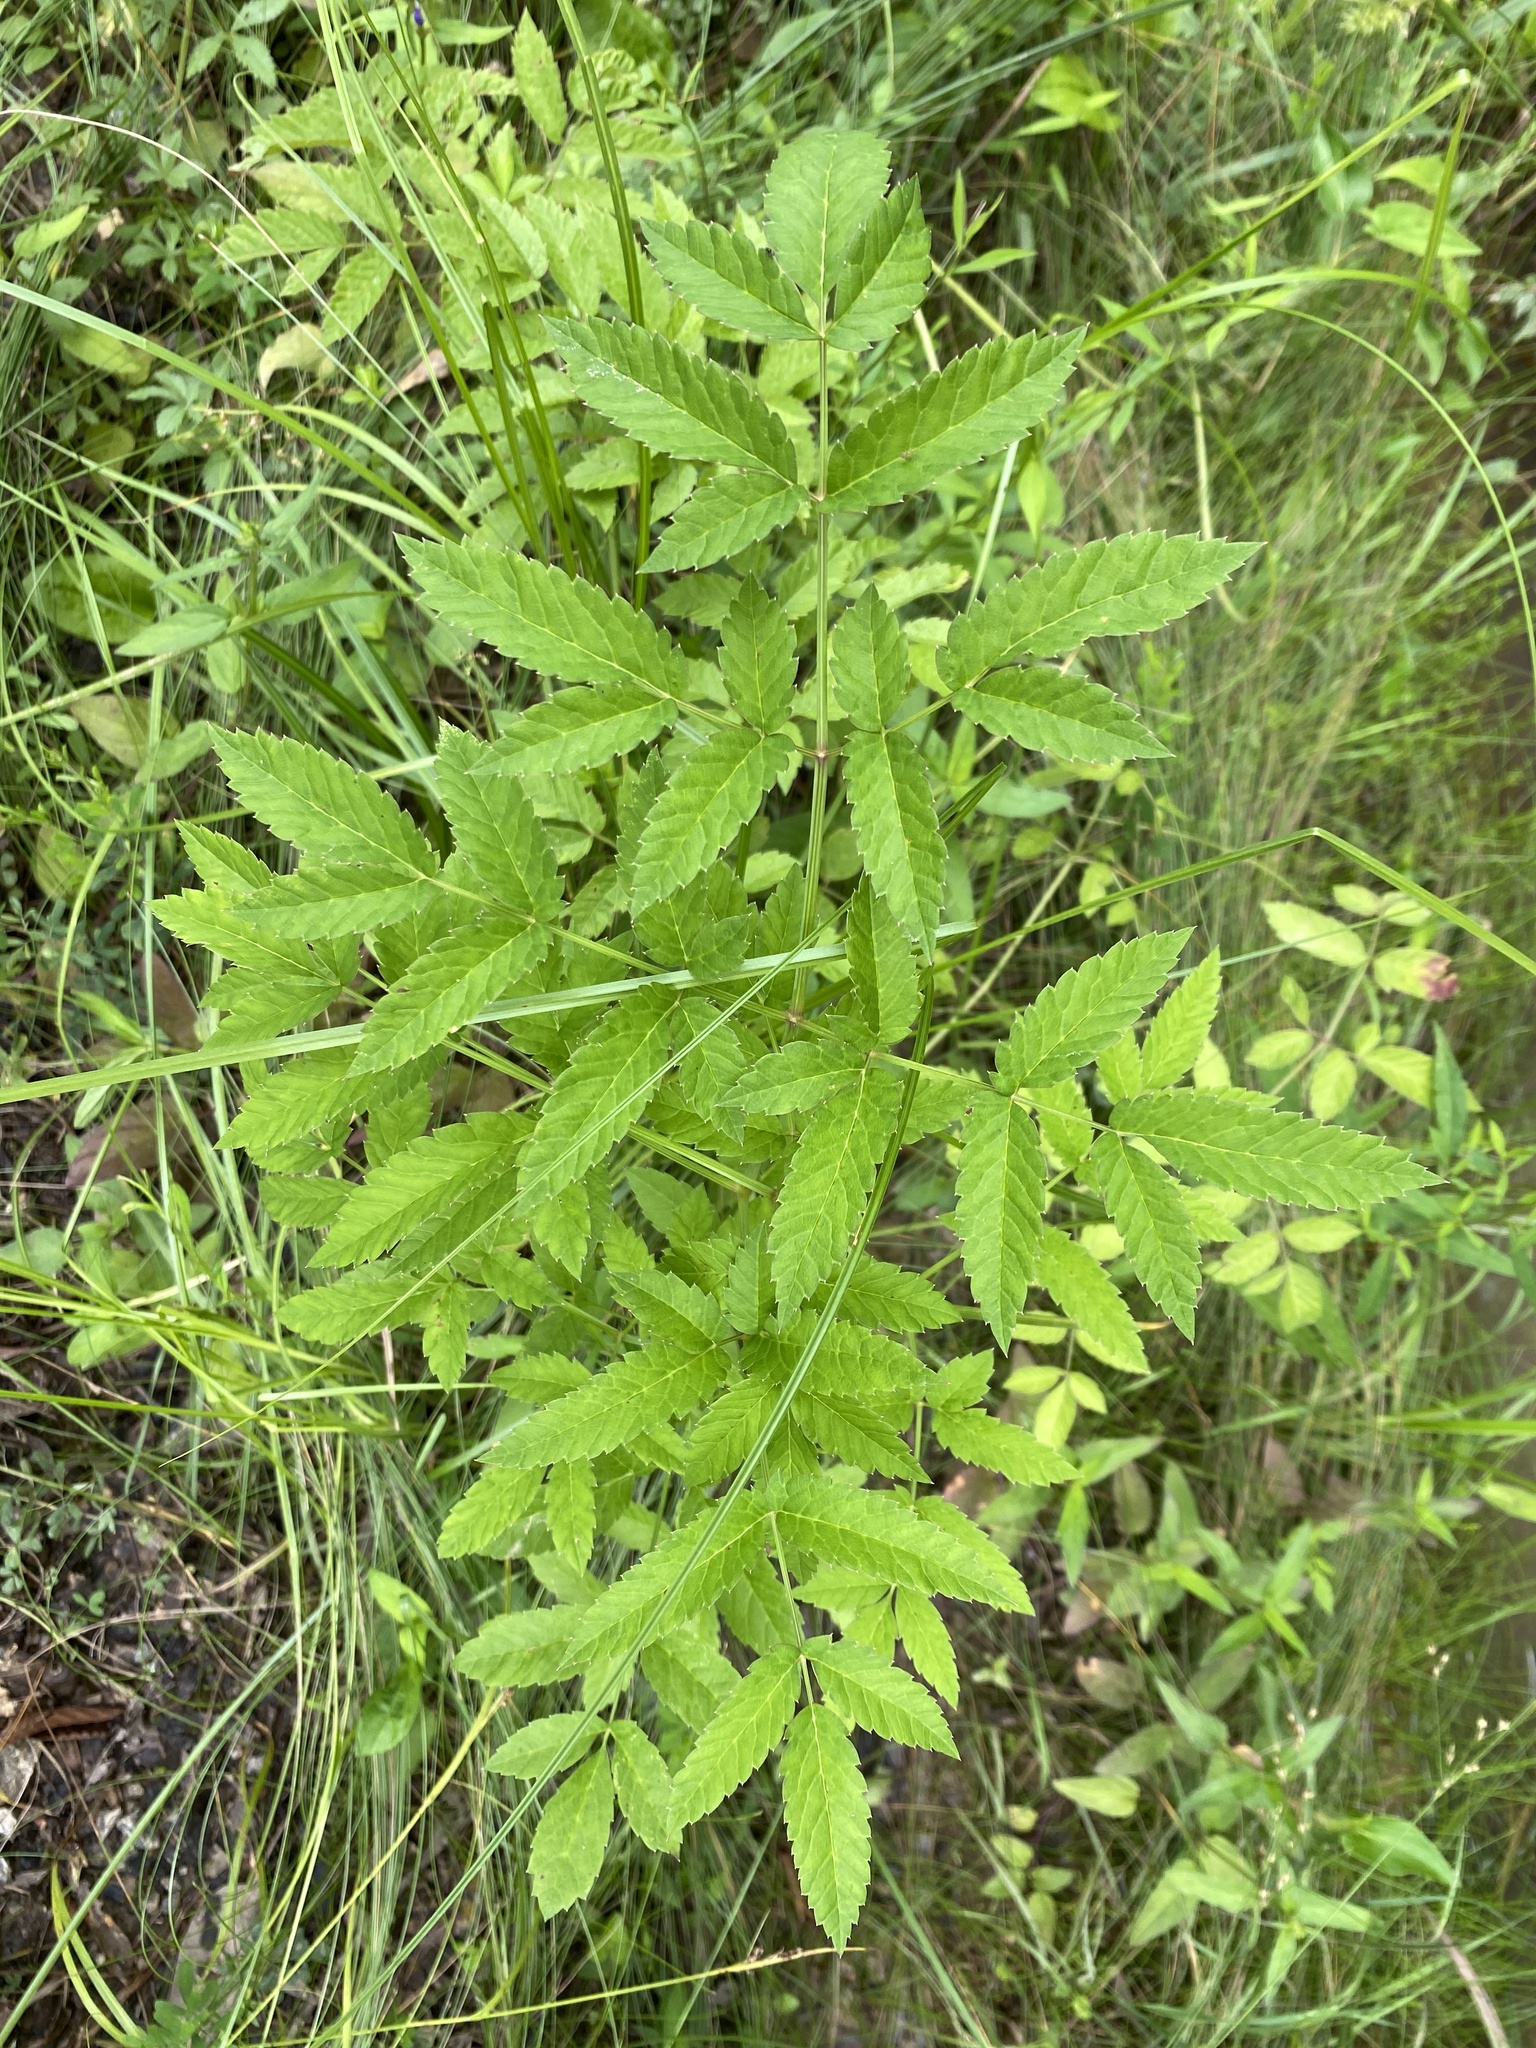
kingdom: Plantae
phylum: Tracheophyta
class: Magnoliopsida
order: Apiales
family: Apiaceae
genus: Cicuta
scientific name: Cicuta maculata
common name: Spotted cowbane
